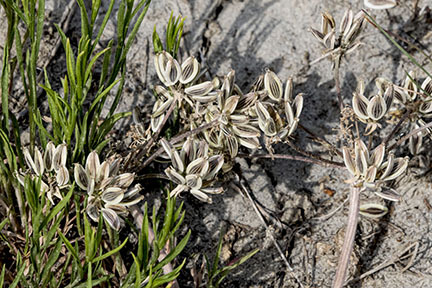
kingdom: Plantae
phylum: Tracheophyta
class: Magnoliopsida
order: Apiales
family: Apiaceae
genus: Lomatium
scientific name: Lomatium
